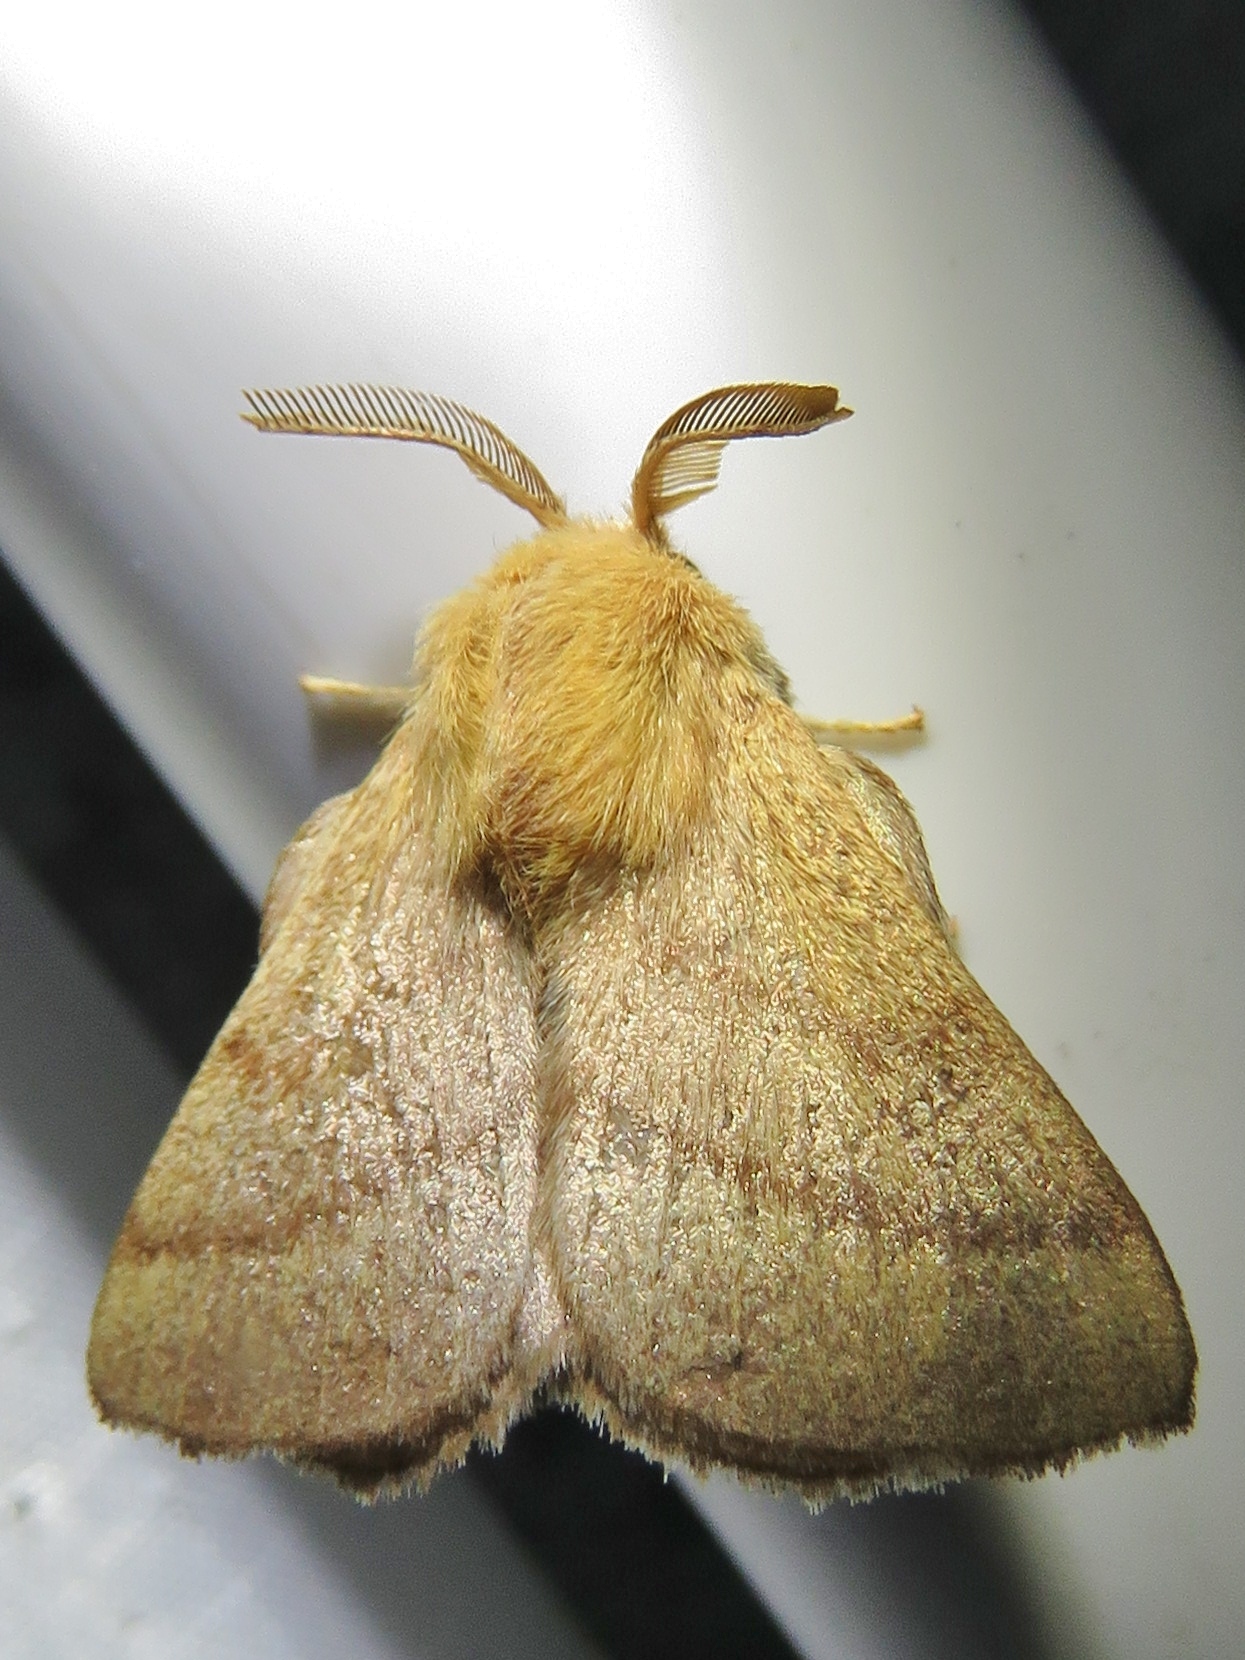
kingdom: Animalia
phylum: Arthropoda
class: Insecta
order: Lepidoptera
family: Lasiocampidae
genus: Malacosoma
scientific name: Malacosoma disstria
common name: Forest tent caterpillar
